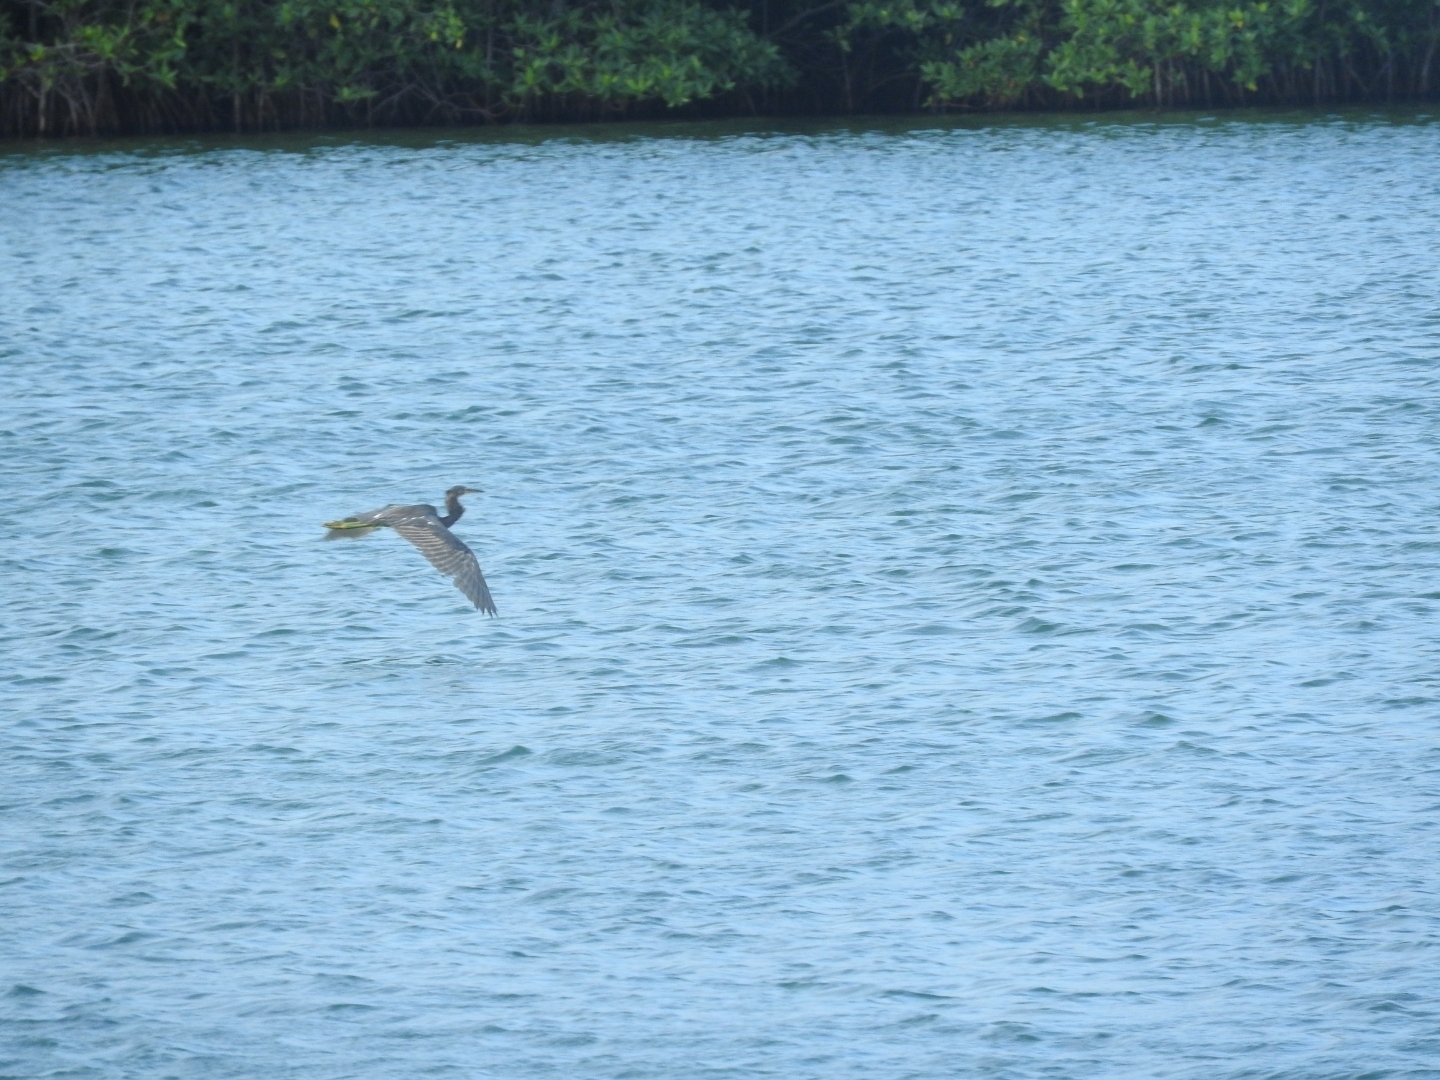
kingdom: Animalia
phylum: Chordata
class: Aves
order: Pelecaniformes
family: Ardeidae
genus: Egretta
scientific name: Egretta tricolor
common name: Tricolored heron
